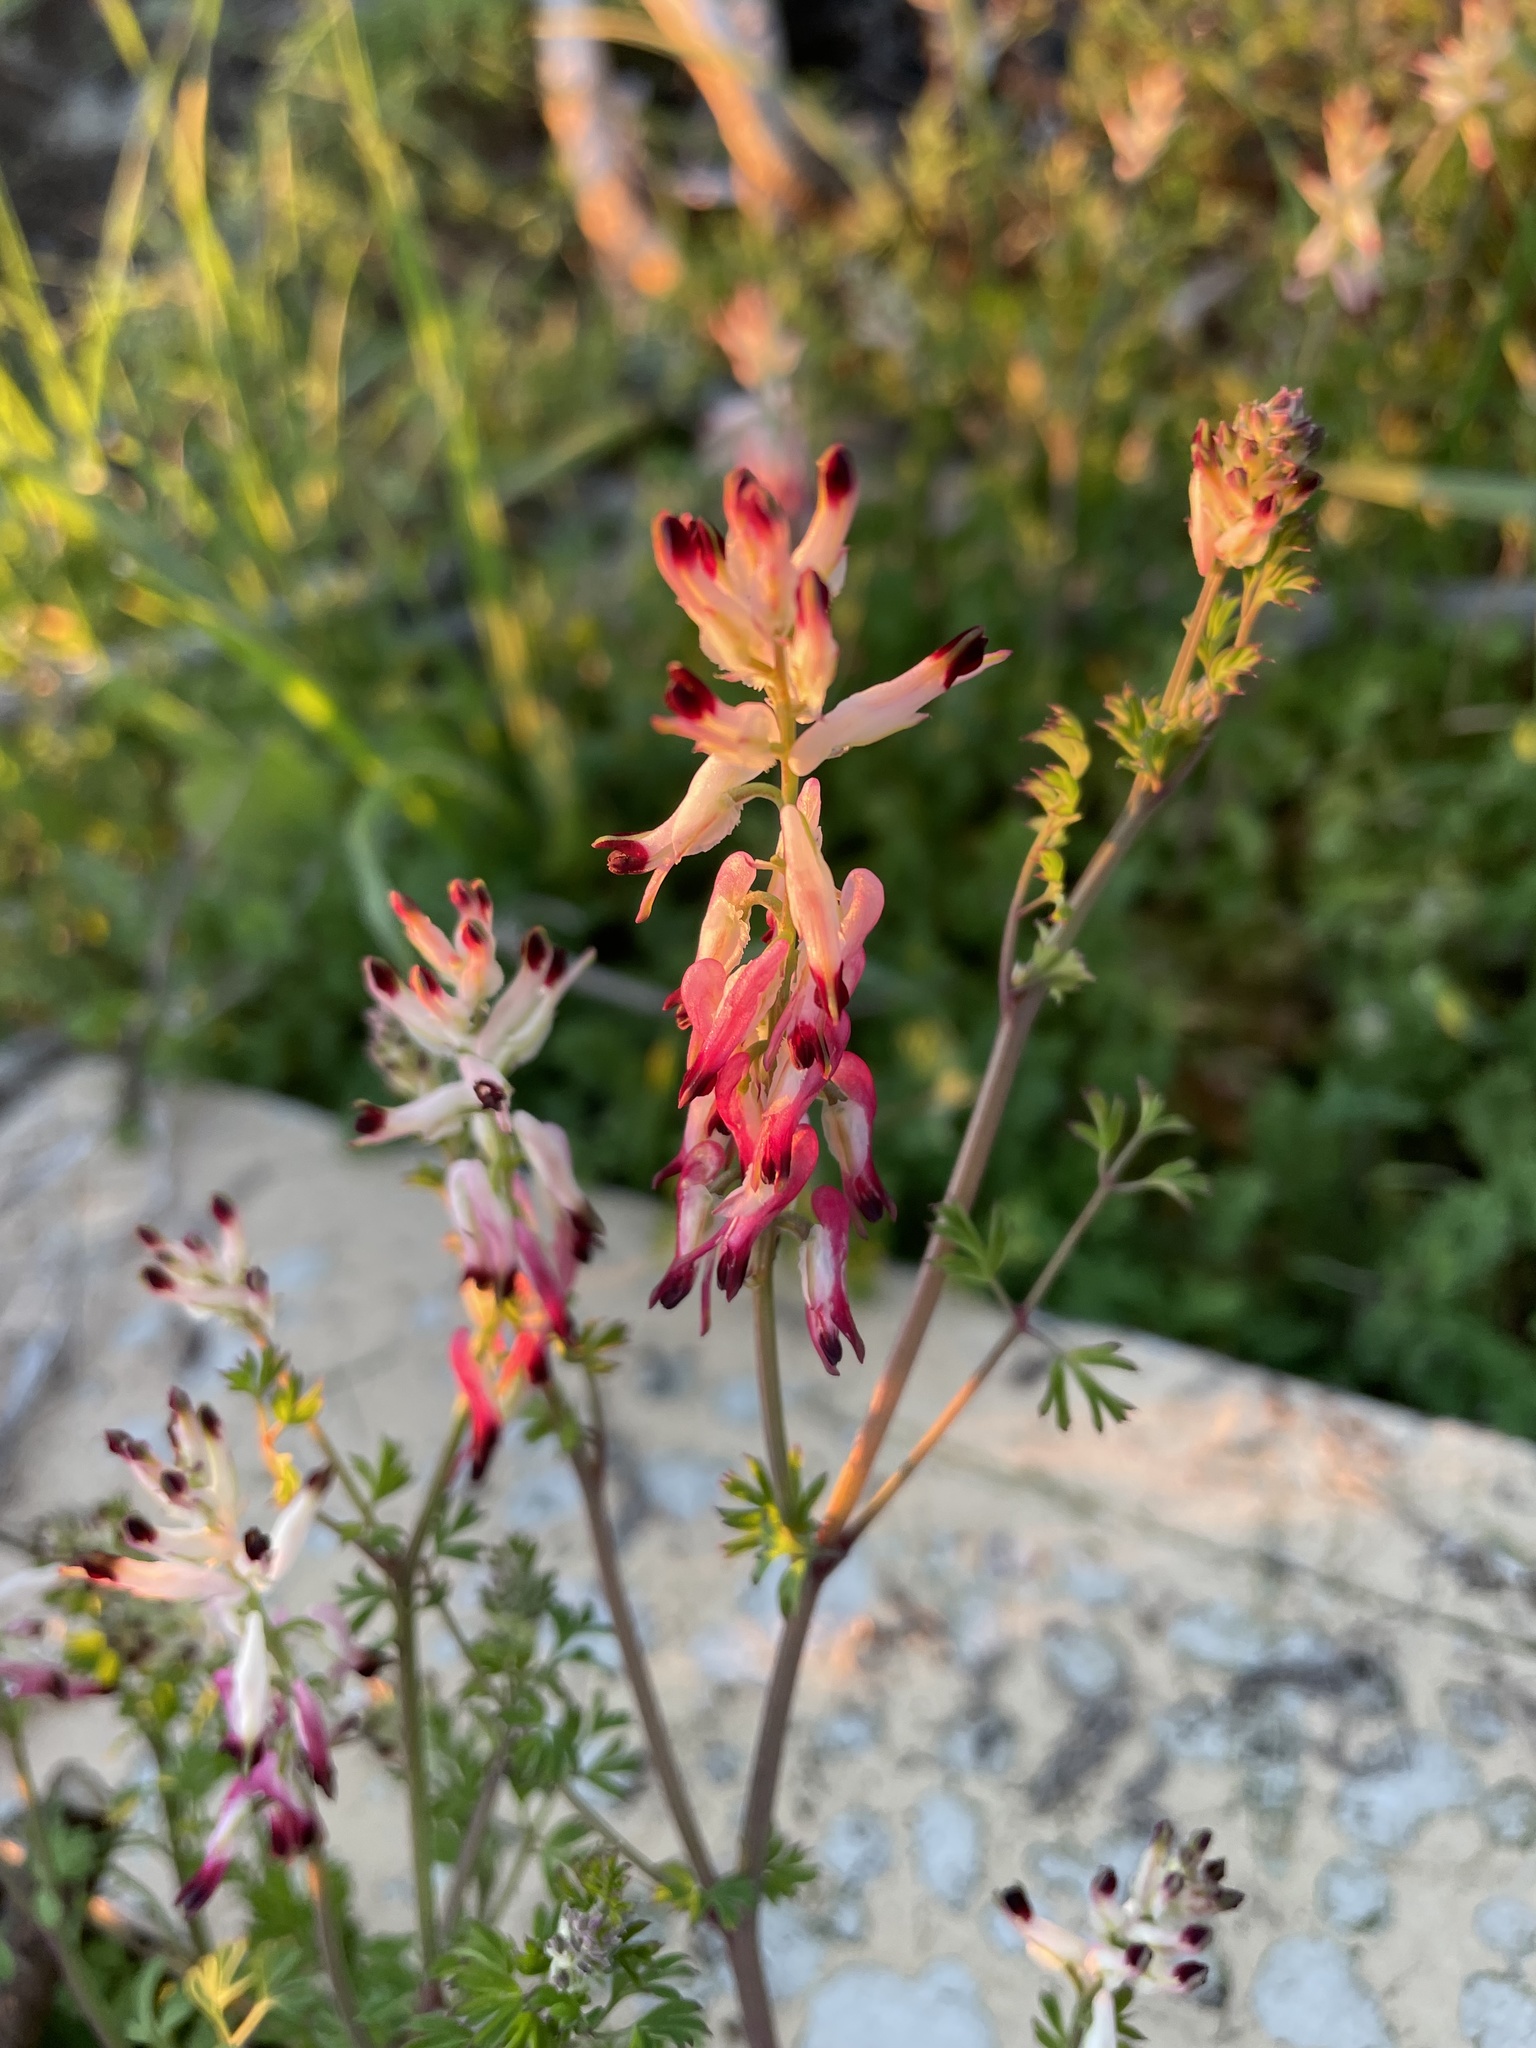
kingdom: Plantae
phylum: Tracheophyta
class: Magnoliopsida
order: Ranunculales
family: Papaveraceae
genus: Fumaria
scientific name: Fumaria capreolata
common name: White ramping-fumitory
